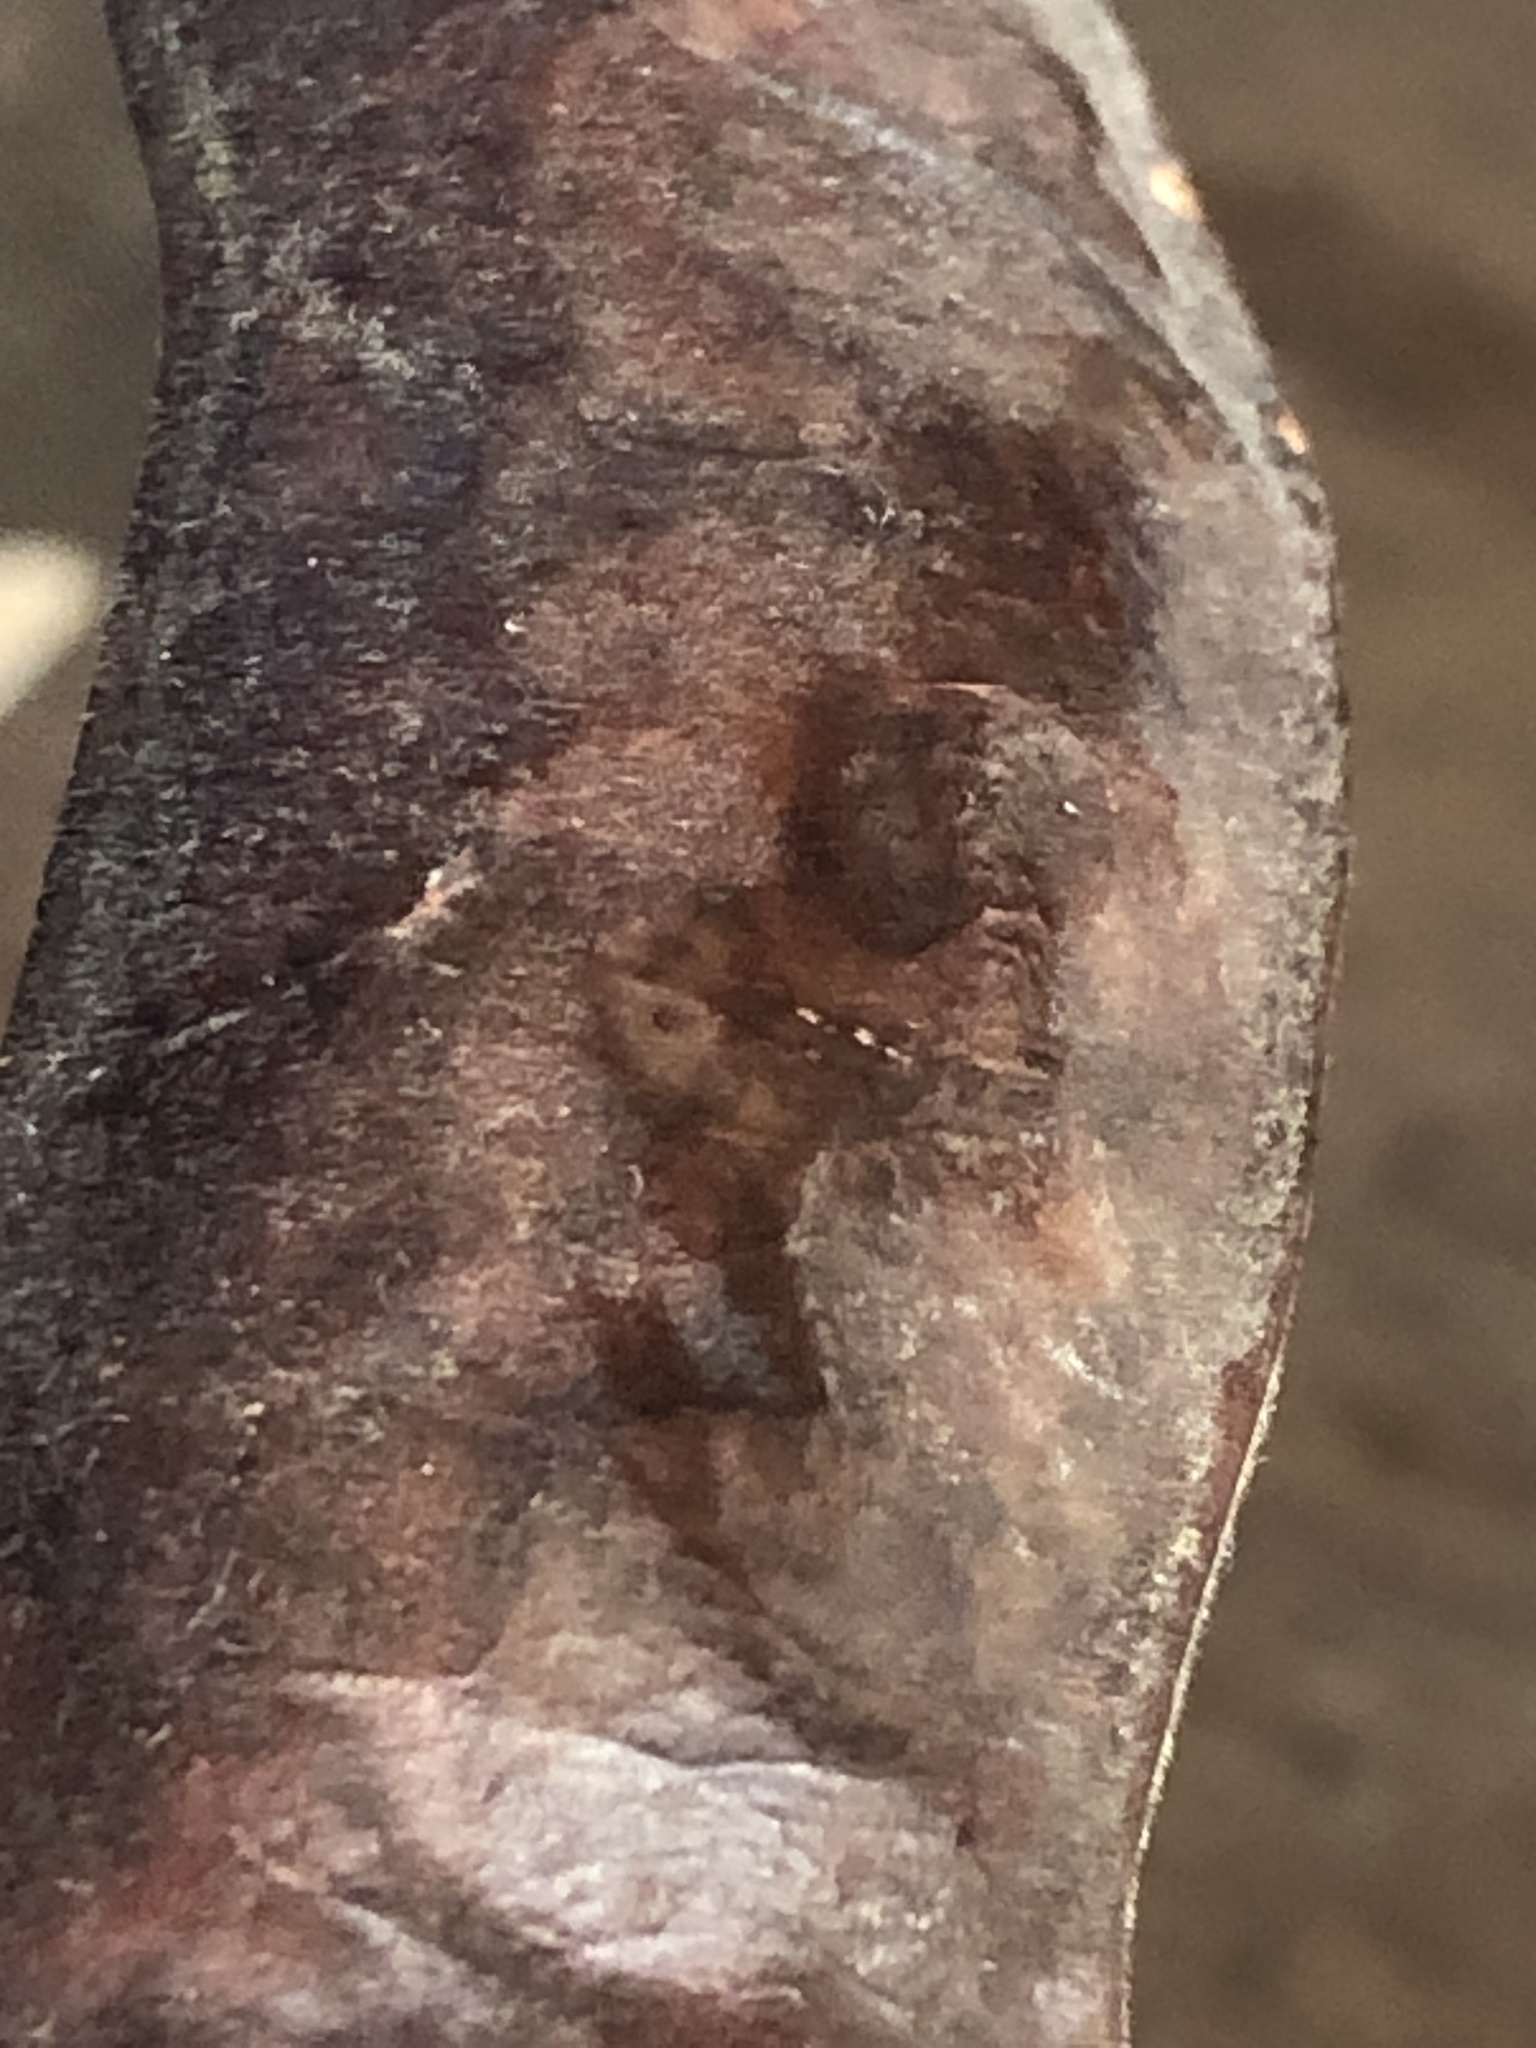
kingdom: Plantae
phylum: Tracheophyta
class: Magnoliopsida
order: Fabales
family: Fabaceae
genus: Gleditsia
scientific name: Gleditsia triacanthos
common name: Common honeylocust
